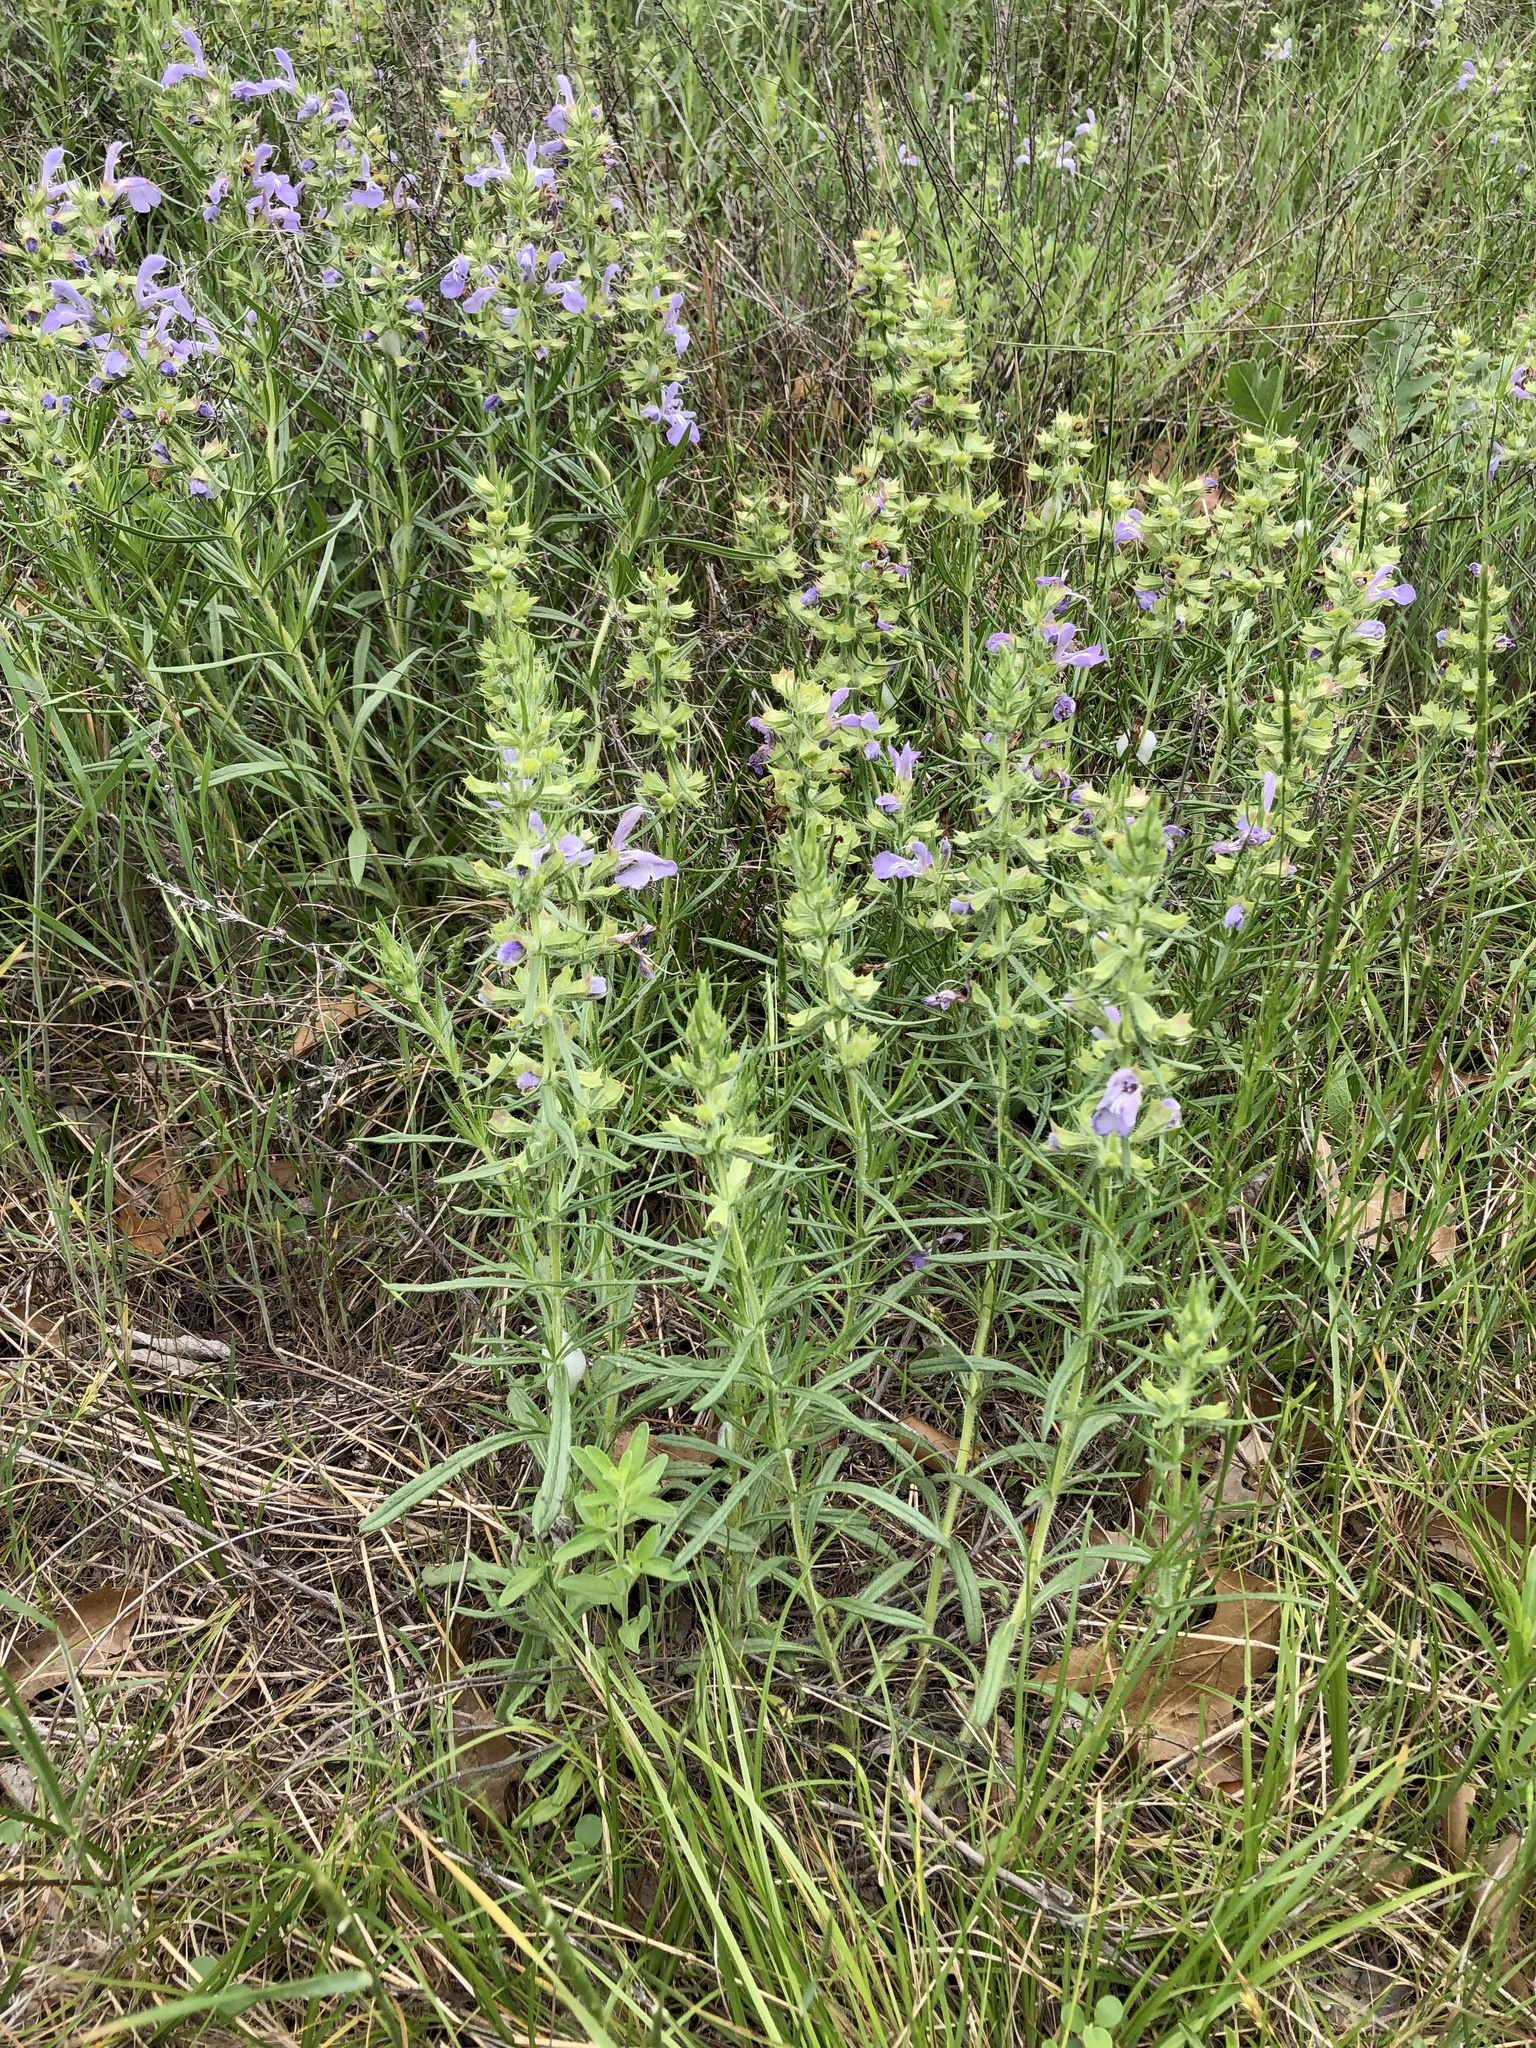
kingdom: Plantae
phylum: Tracheophyta
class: Magnoliopsida
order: Lamiales
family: Lamiaceae
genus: Salvia
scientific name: Salvia engelmannii
